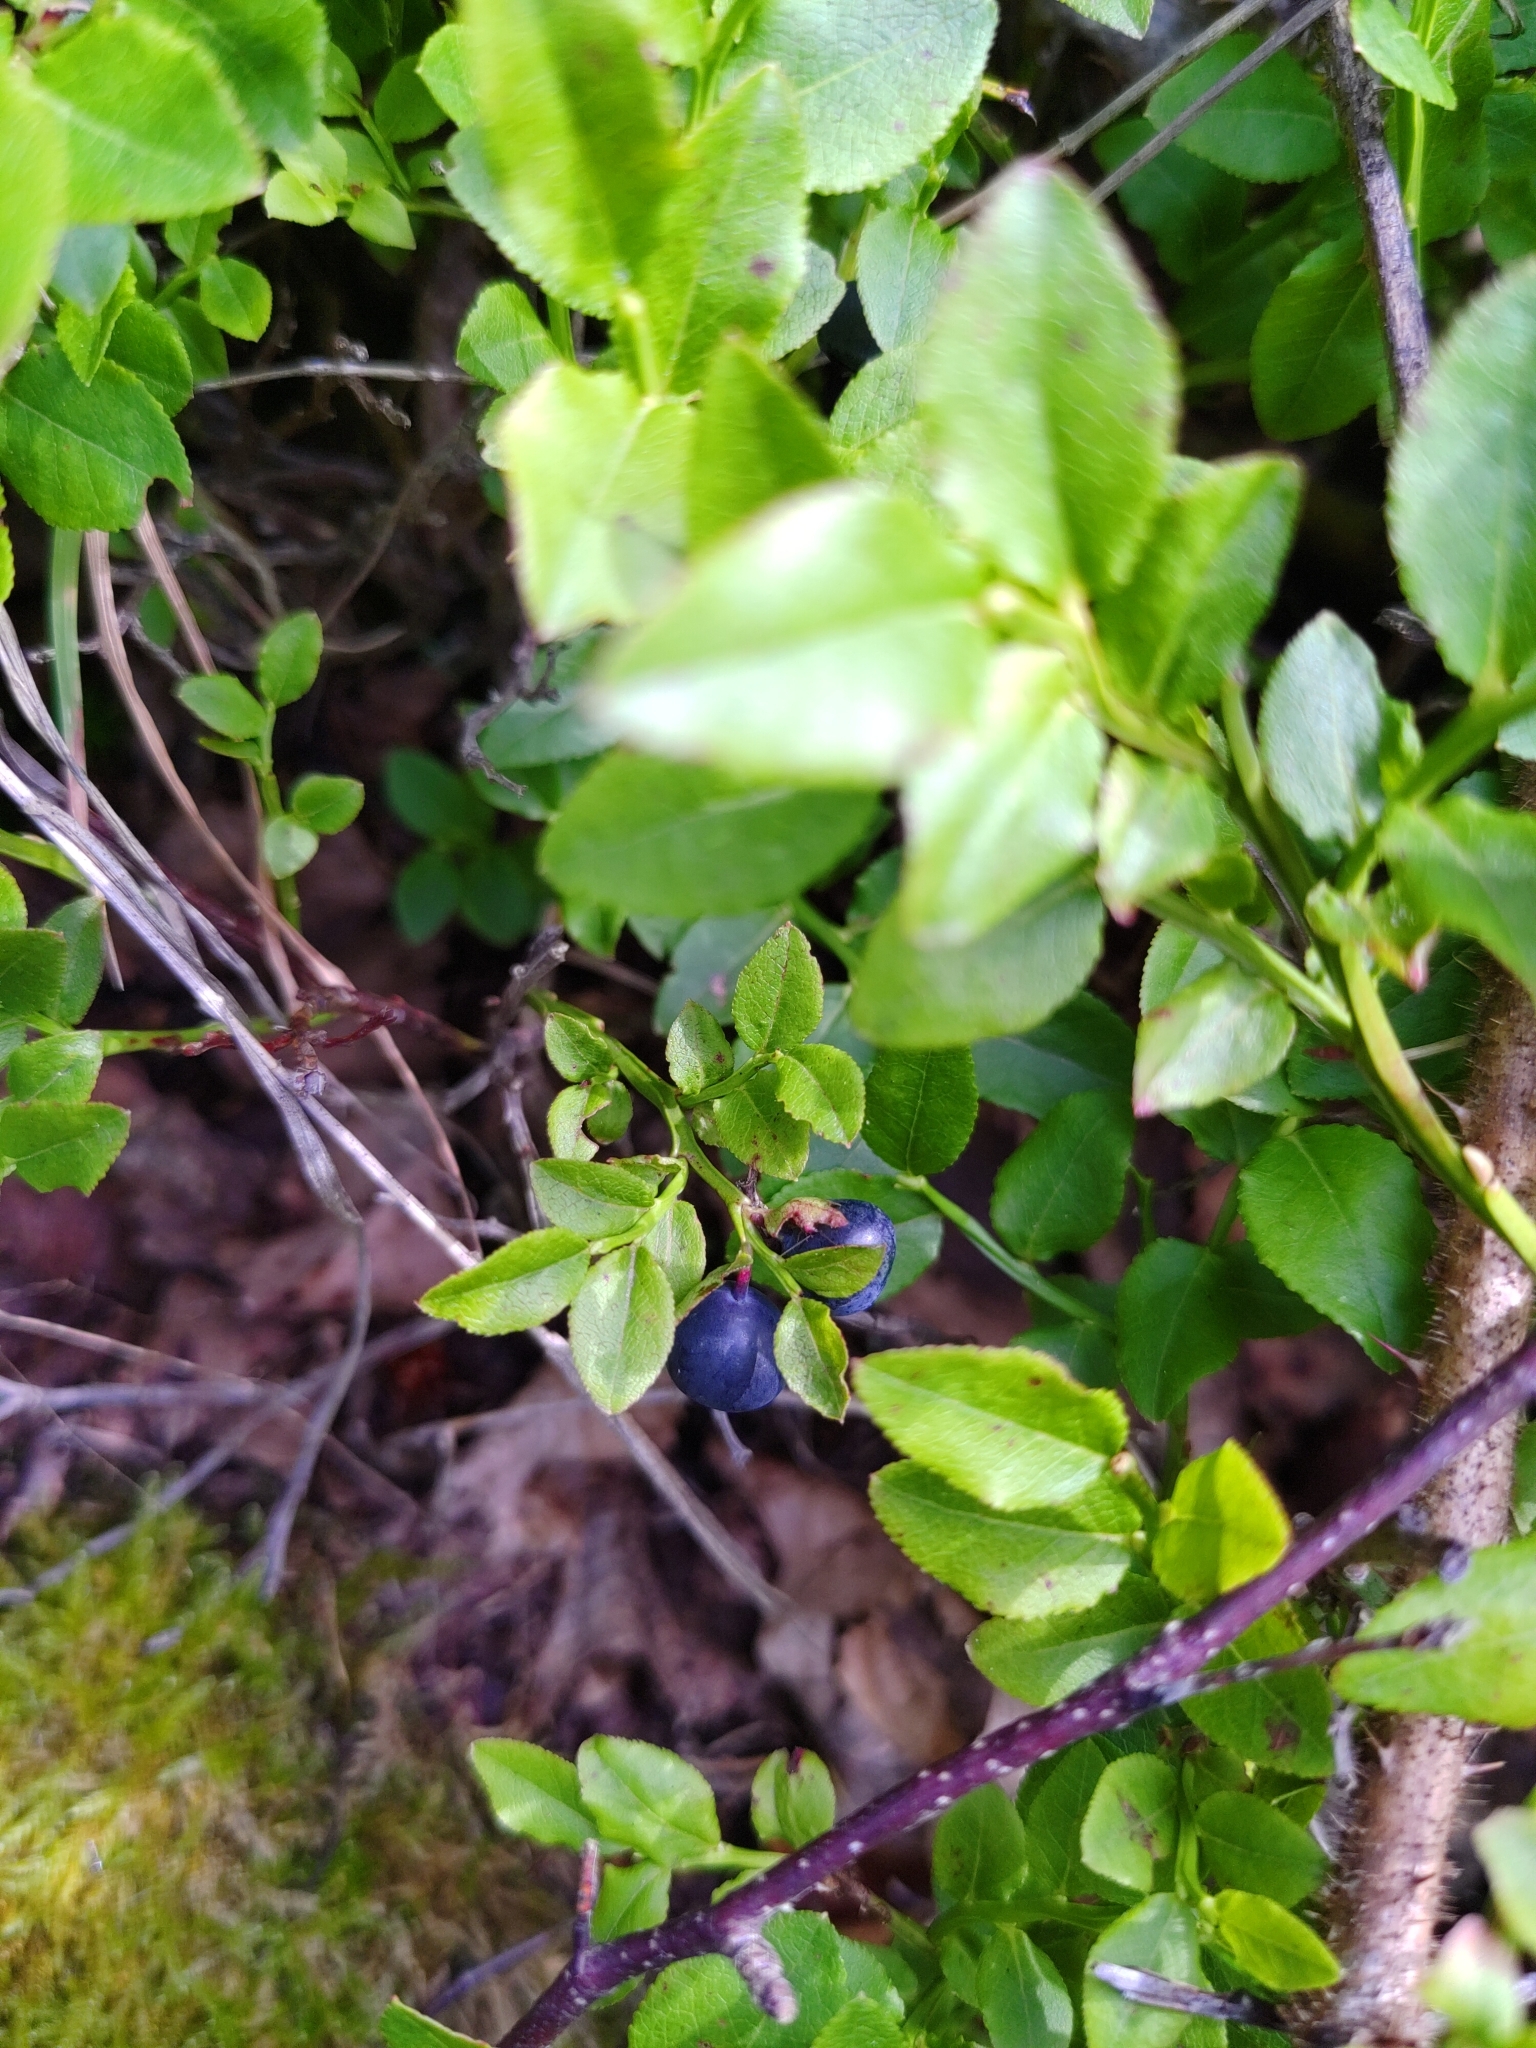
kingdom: Plantae
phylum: Tracheophyta
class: Magnoliopsida
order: Ericales
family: Ericaceae
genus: Vaccinium
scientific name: Vaccinium myrtillus
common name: Bilberry
